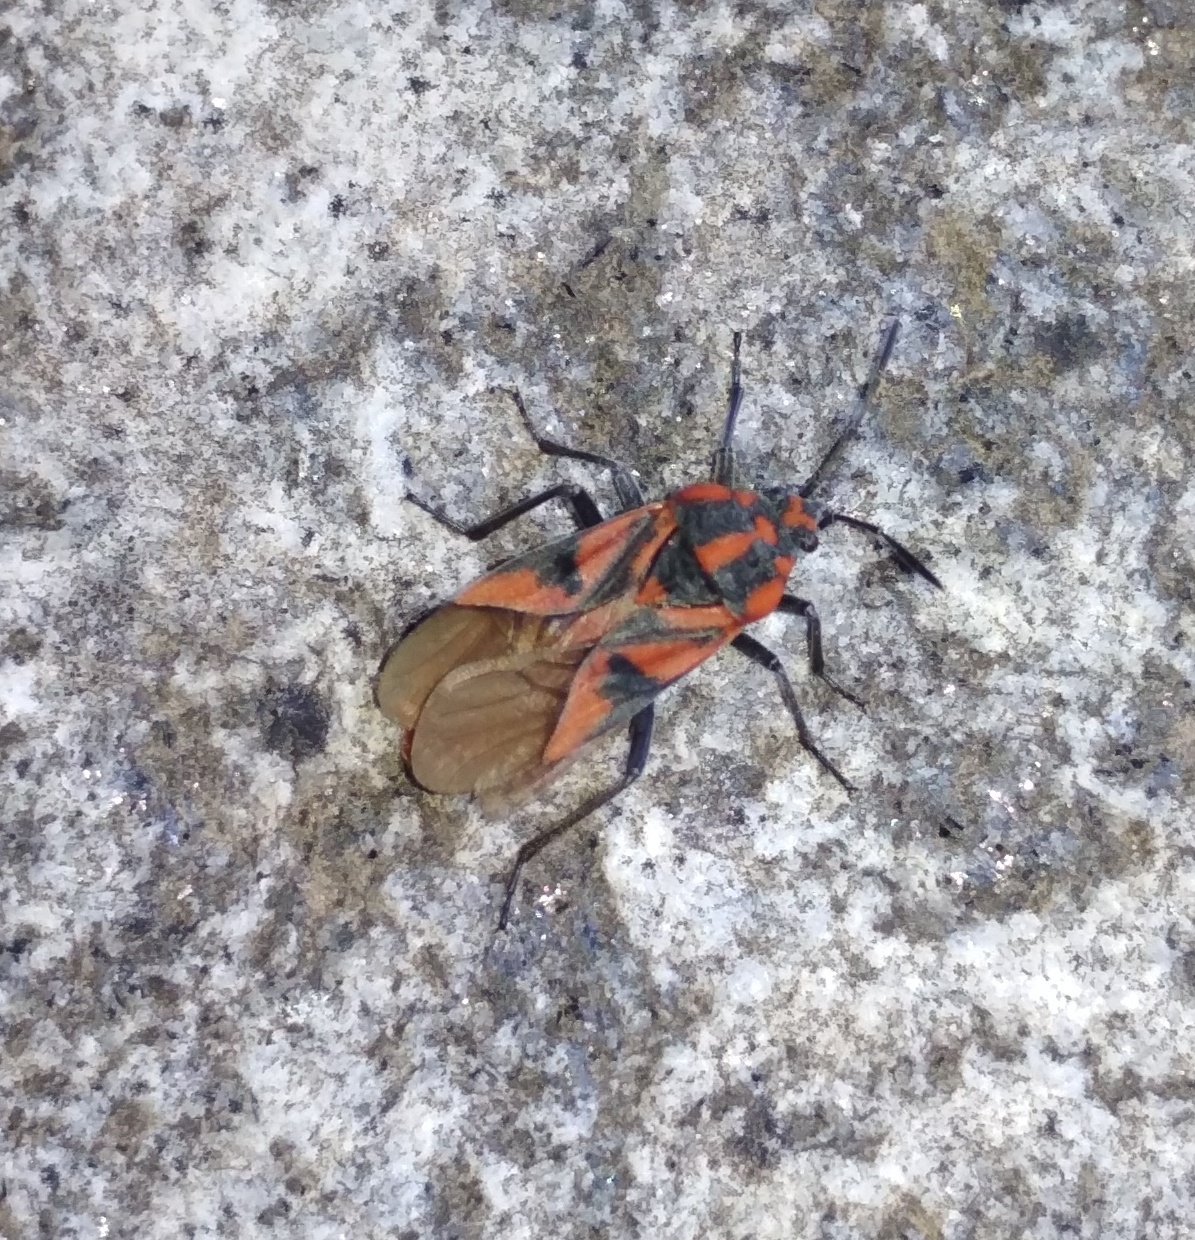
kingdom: Animalia
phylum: Arthropoda
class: Insecta
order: Hemiptera
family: Lygaeidae
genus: Spilostethus
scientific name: Spilostethus furcula
